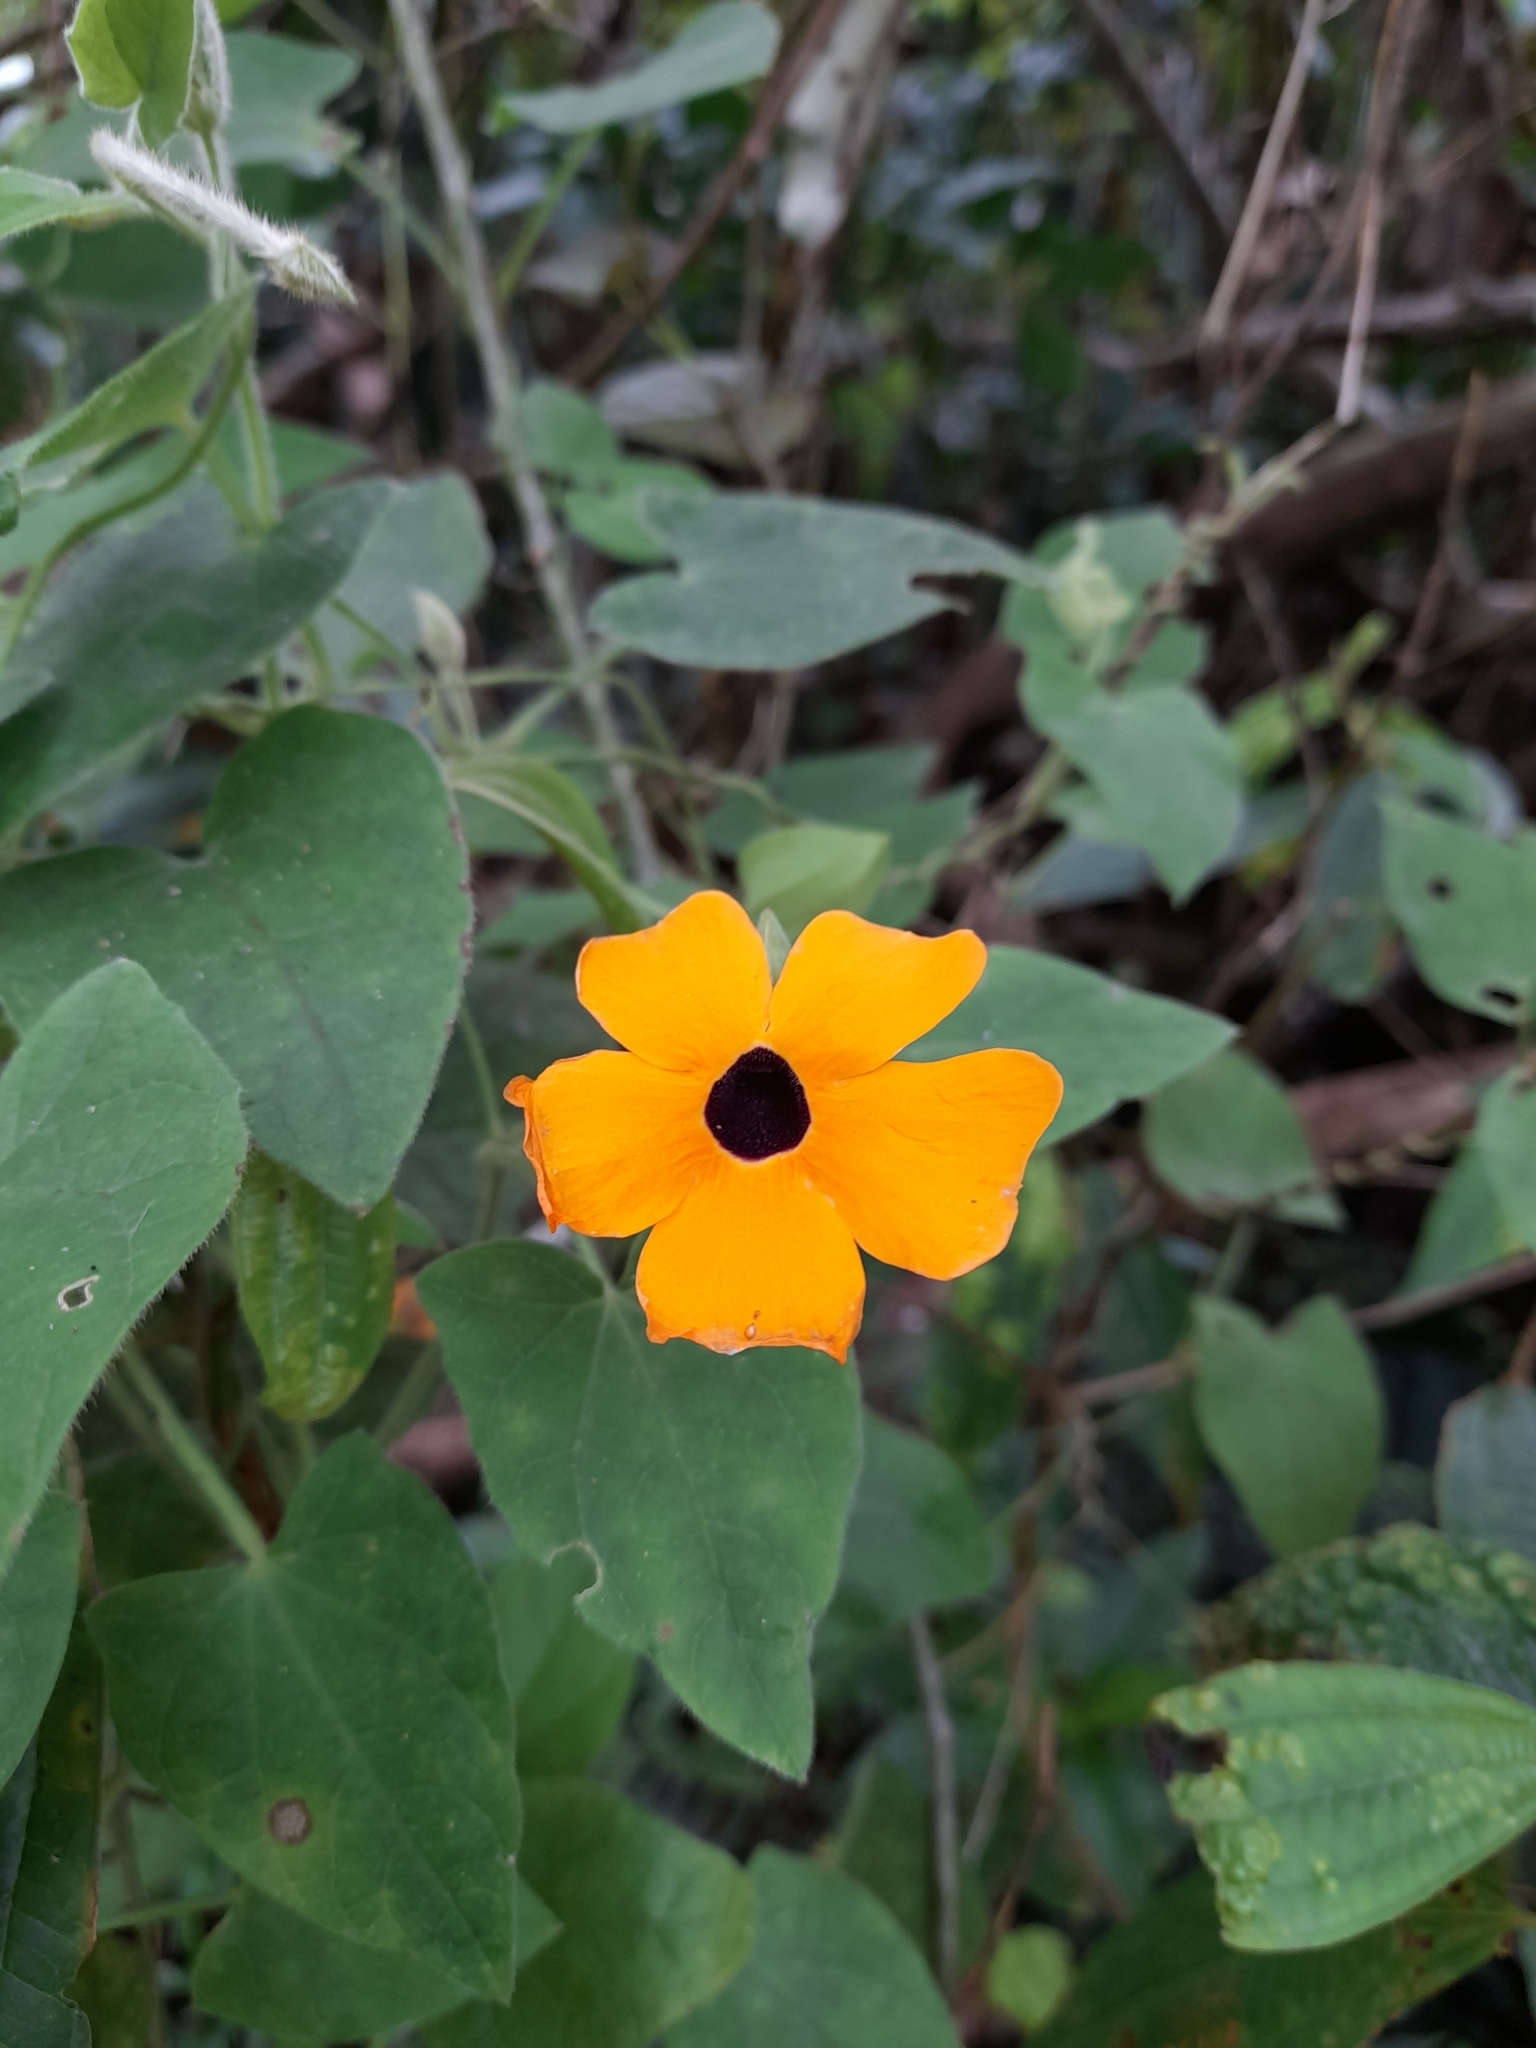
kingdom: Plantae
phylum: Tracheophyta
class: Magnoliopsida
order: Lamiales
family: Acanthaceae
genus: Thunbergia
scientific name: Thunbergia alata
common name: Blackeyed susan vine
